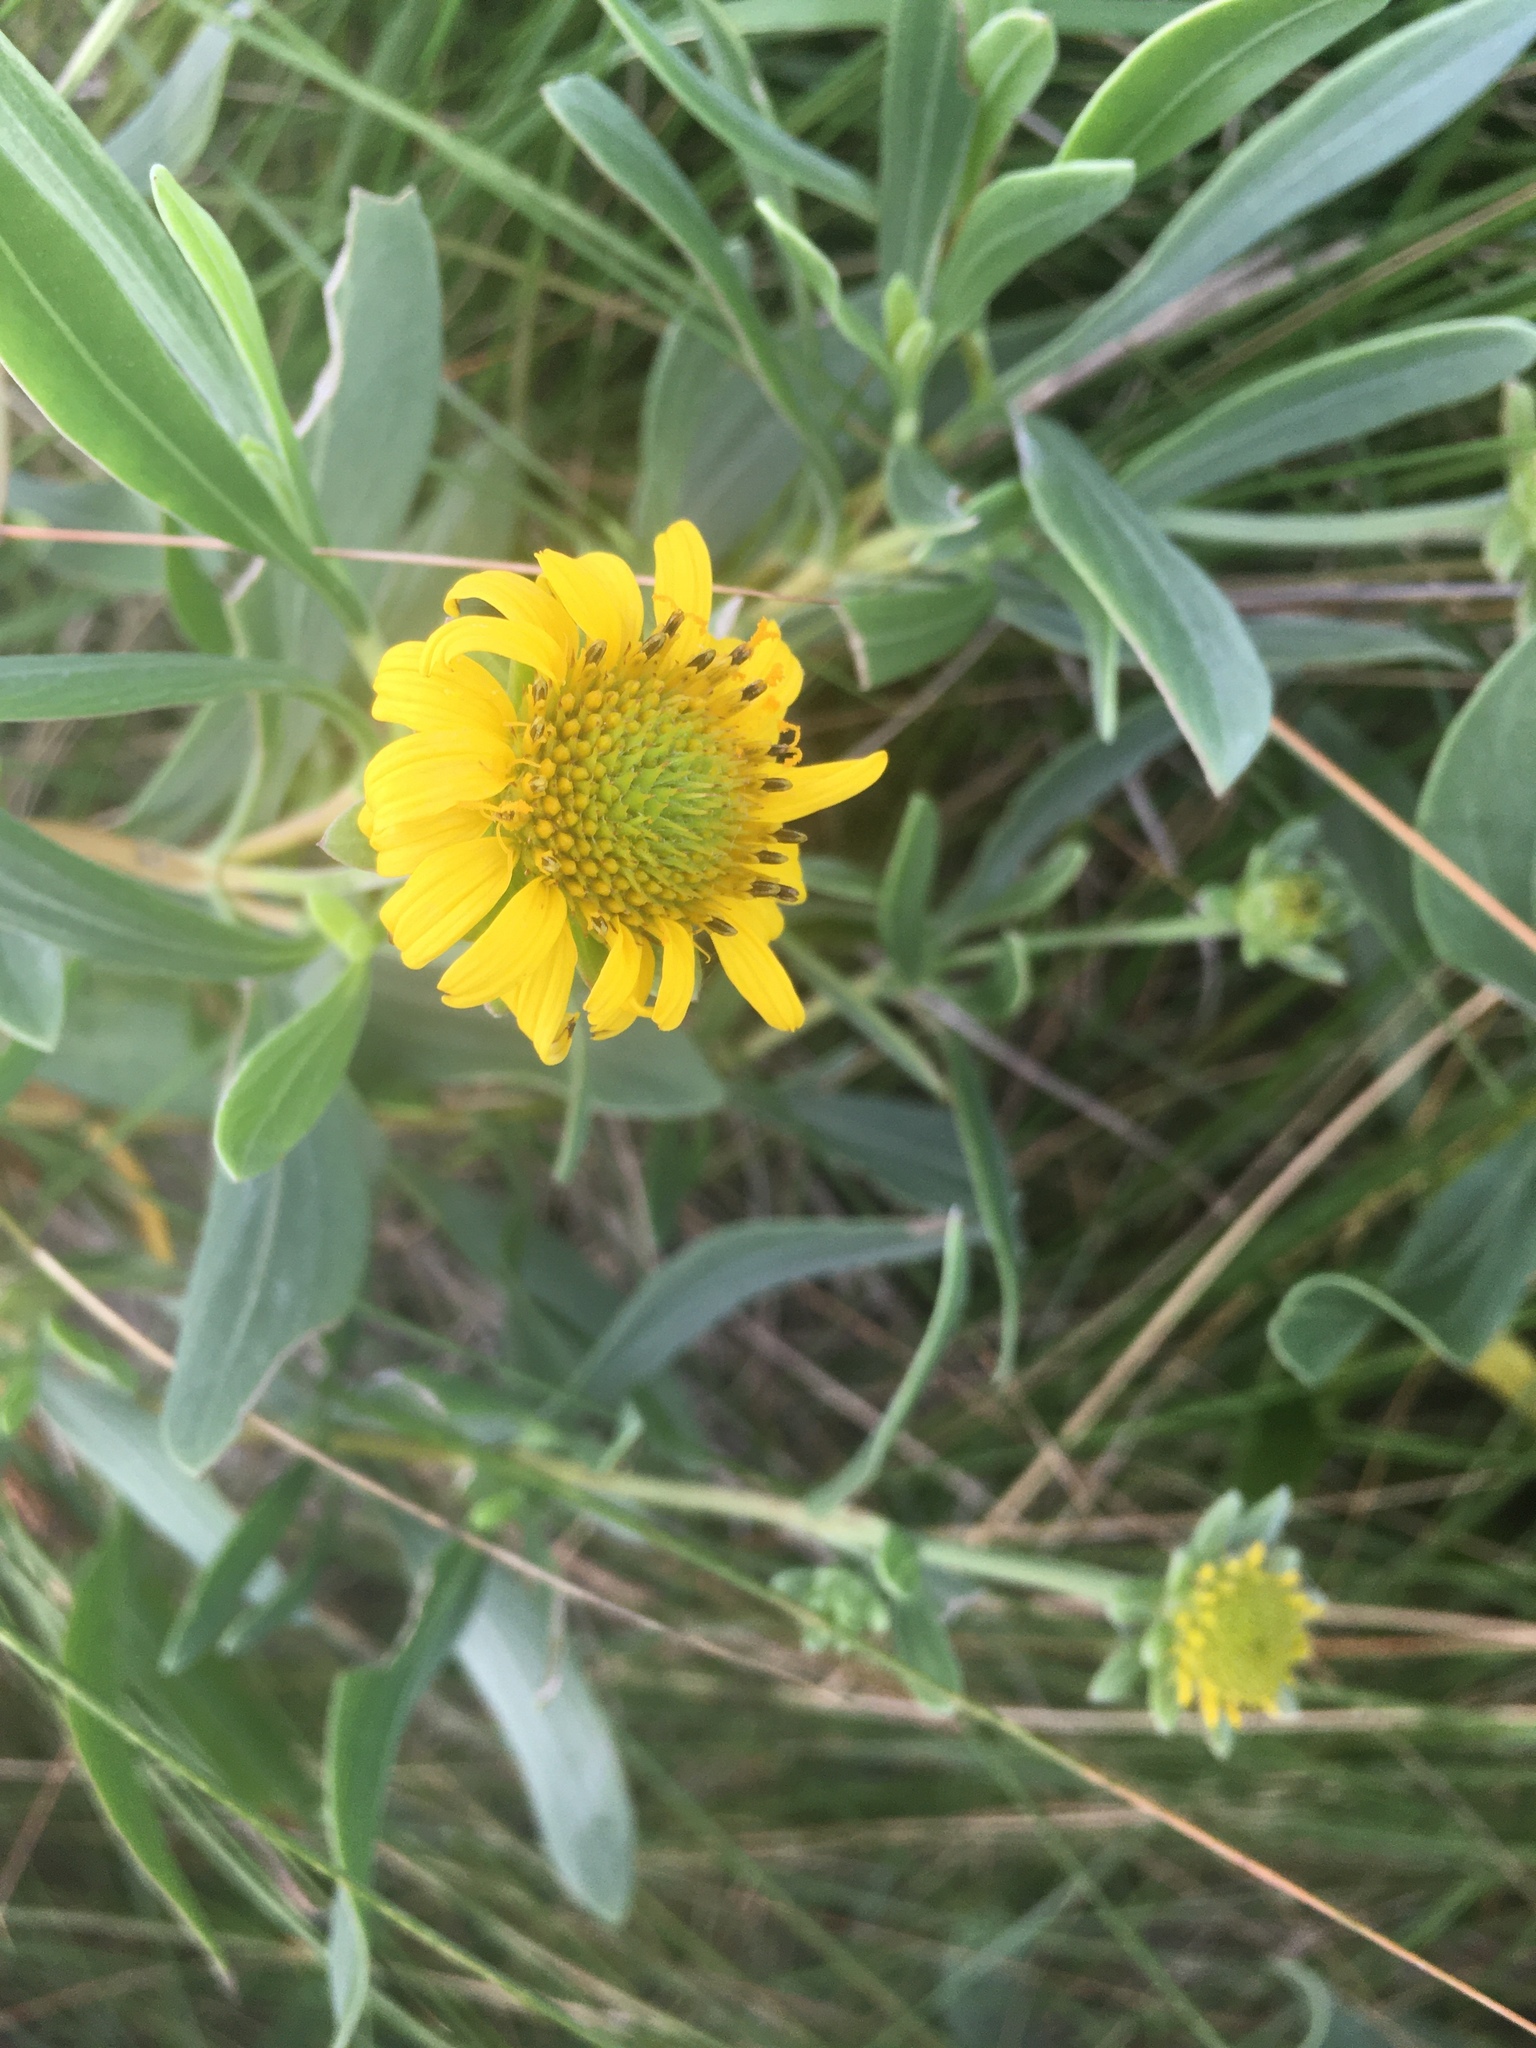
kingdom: Plantae
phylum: Tracheophyta
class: Magnoliopsida
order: Asterales
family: Asteraceae
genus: Borrichia
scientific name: Borrichia frutescens
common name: Sea oxeye
